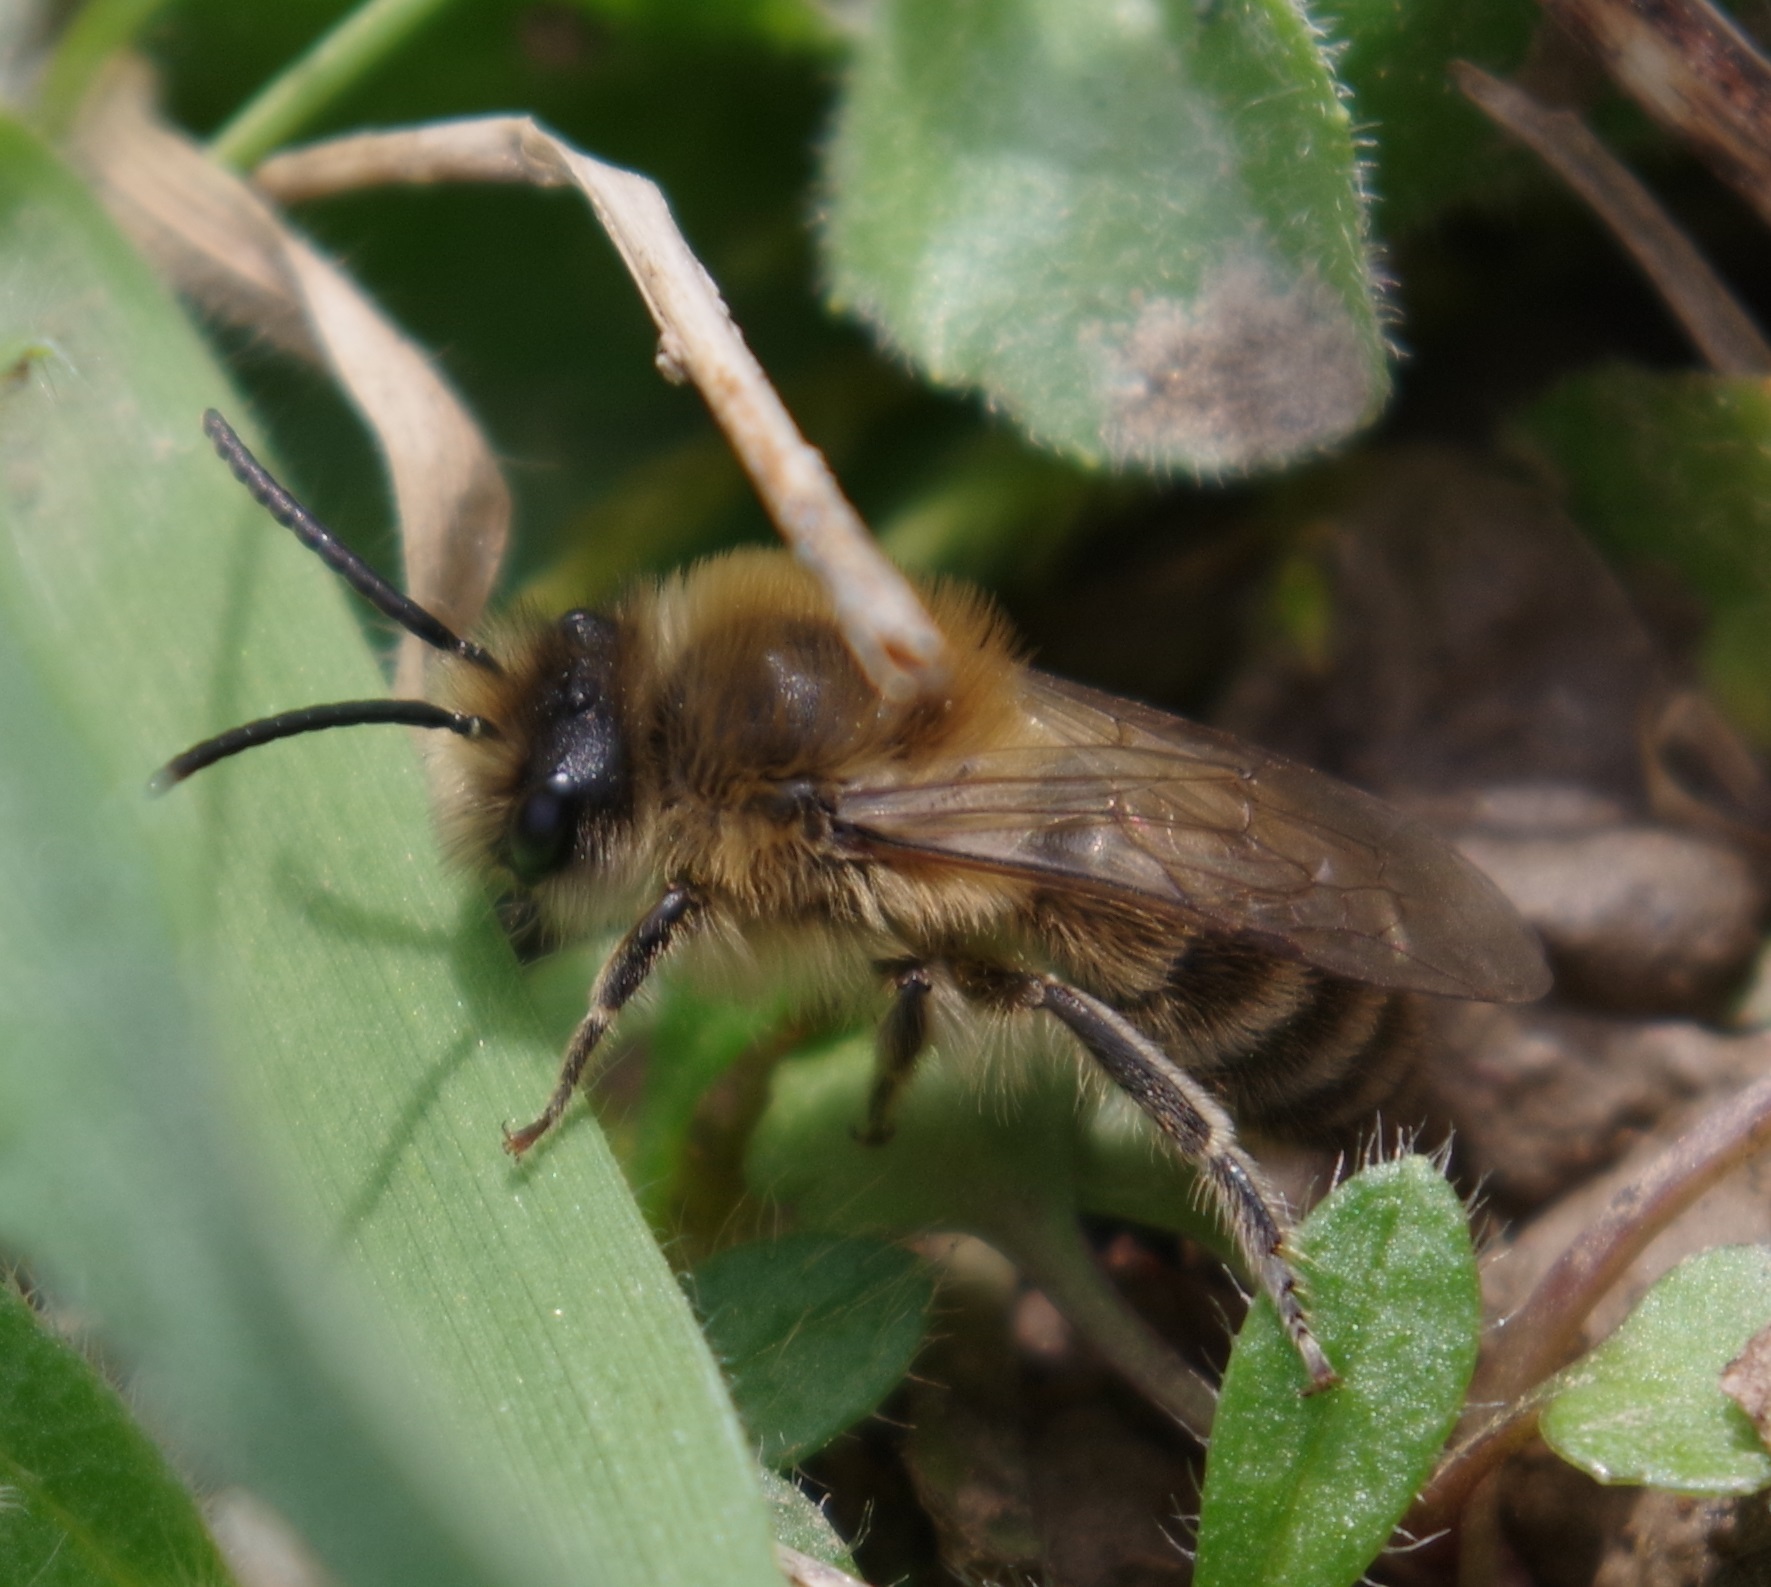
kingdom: Animalia
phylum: Arthropoda
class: Insecta
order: Hymenoptera
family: Colletidae
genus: Colletes
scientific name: Colletes cunicularius
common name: Early colletes
